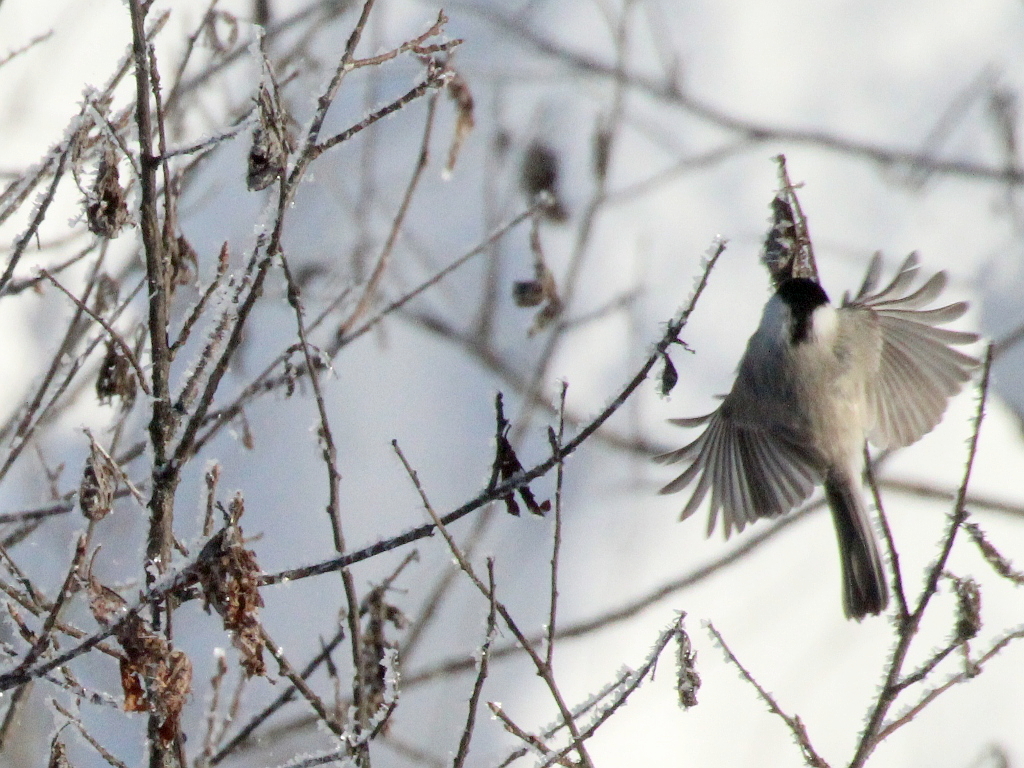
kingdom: Animalia
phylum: Chordata
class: Aves
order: Passeriformes
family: Paridae
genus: Poecile
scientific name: Poecile palustris
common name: Marsh tit
